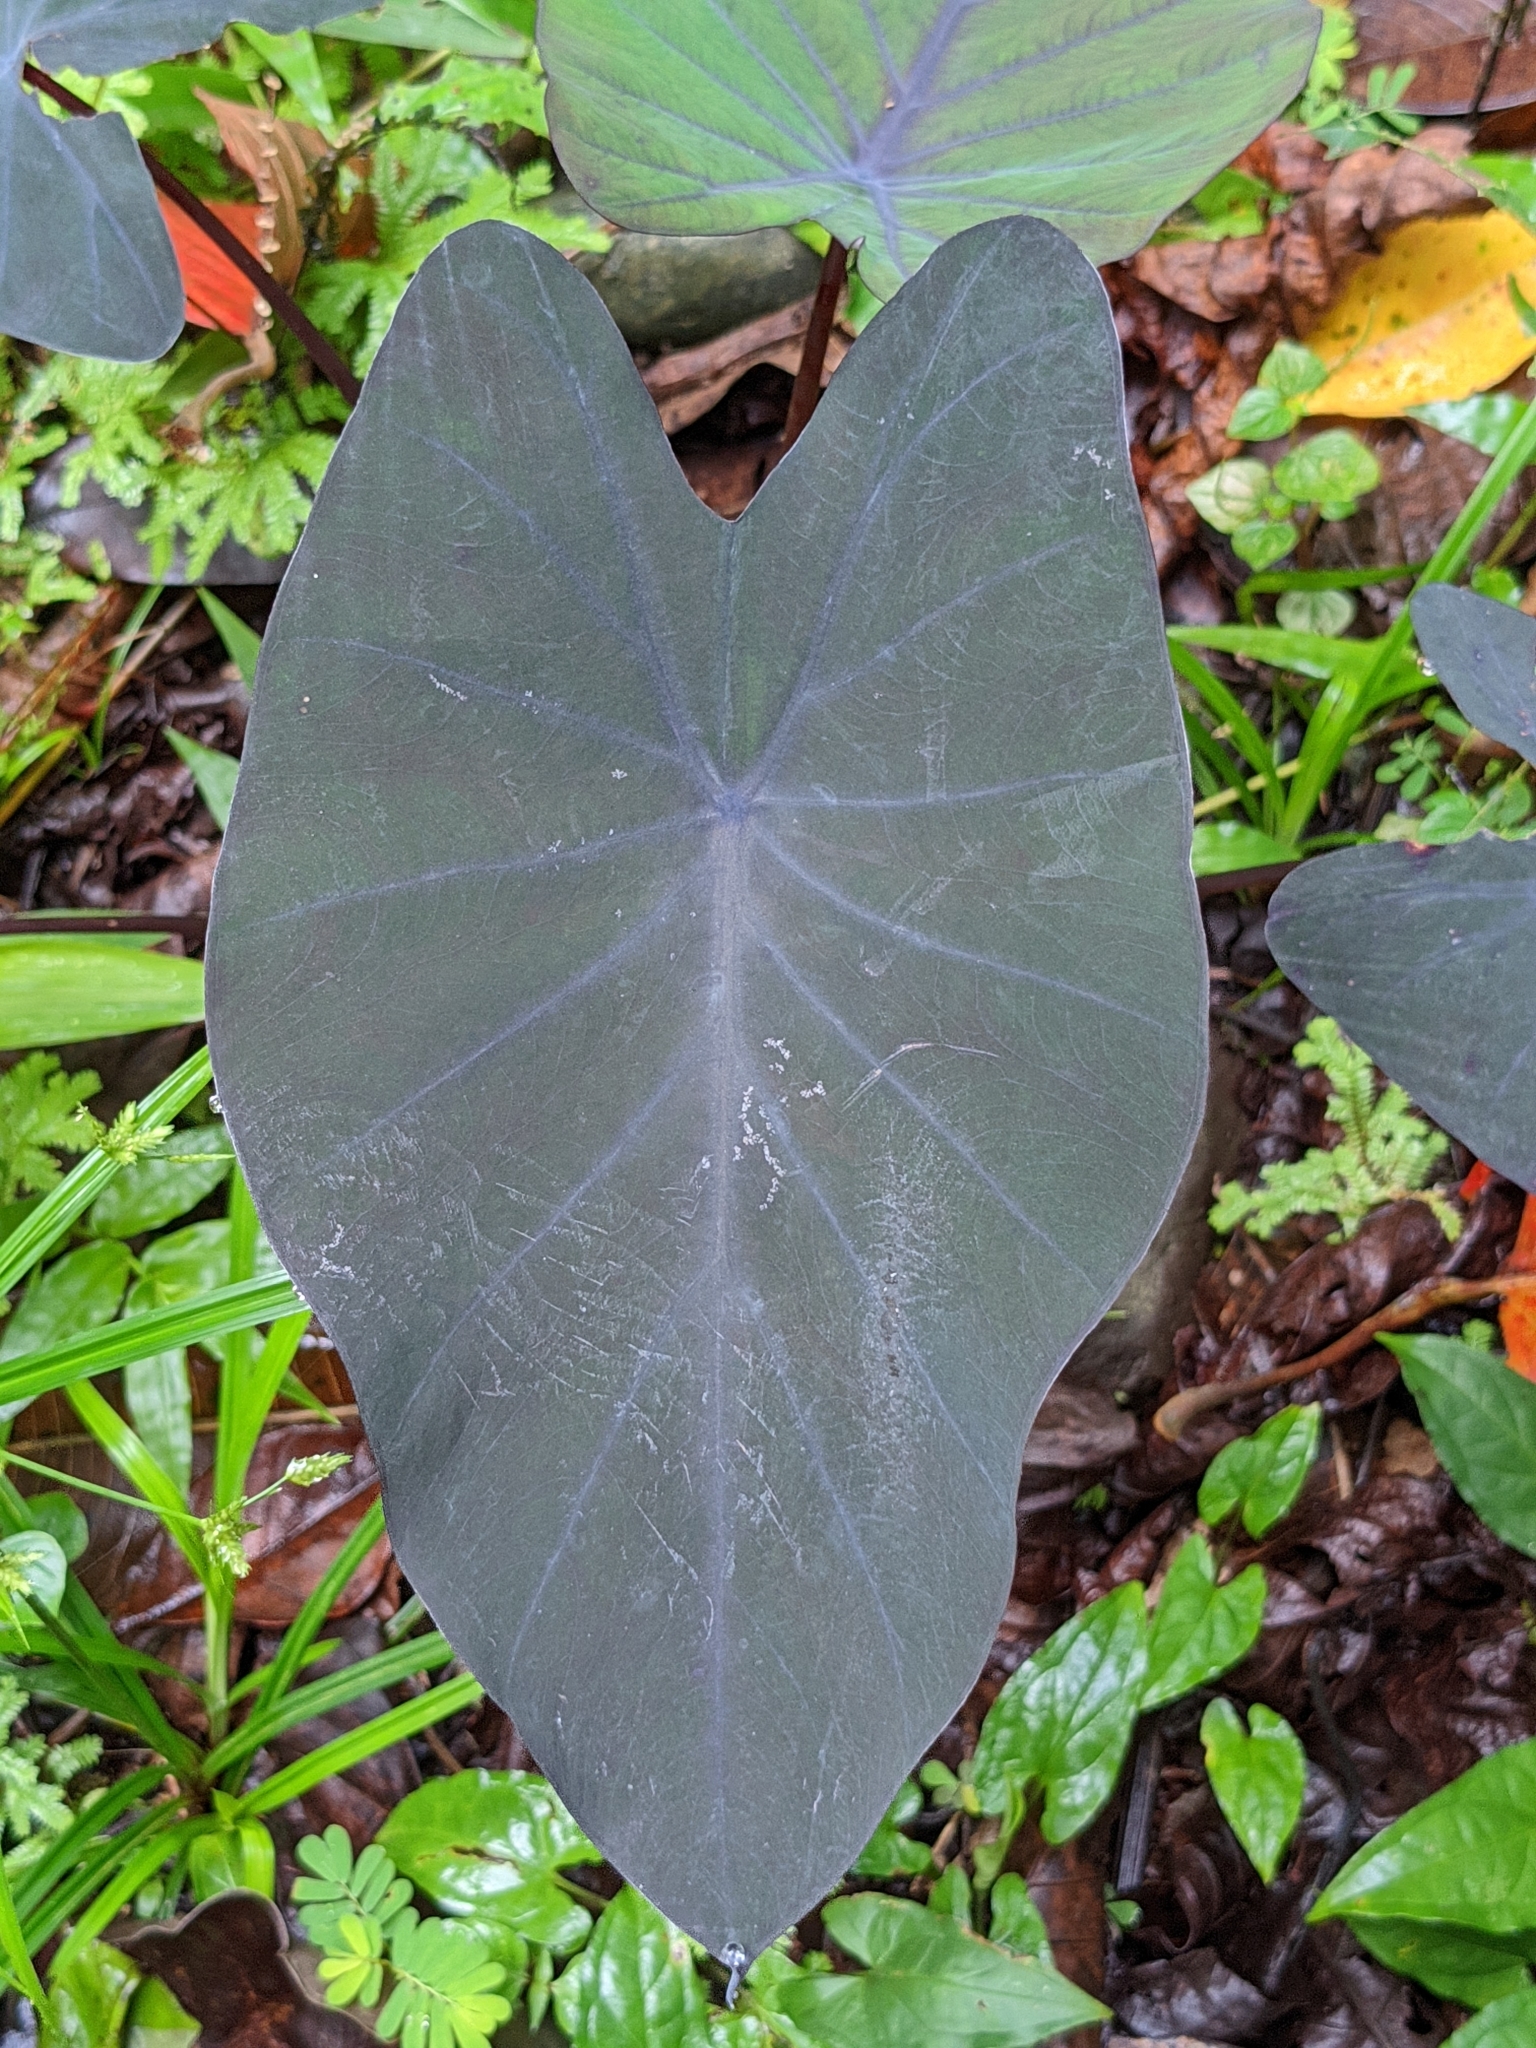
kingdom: Plantae
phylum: Tracheophyta
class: Liliopsida
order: Alismatales
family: Araceae
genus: Colocasia
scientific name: Colocasia esculenta
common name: Taro
